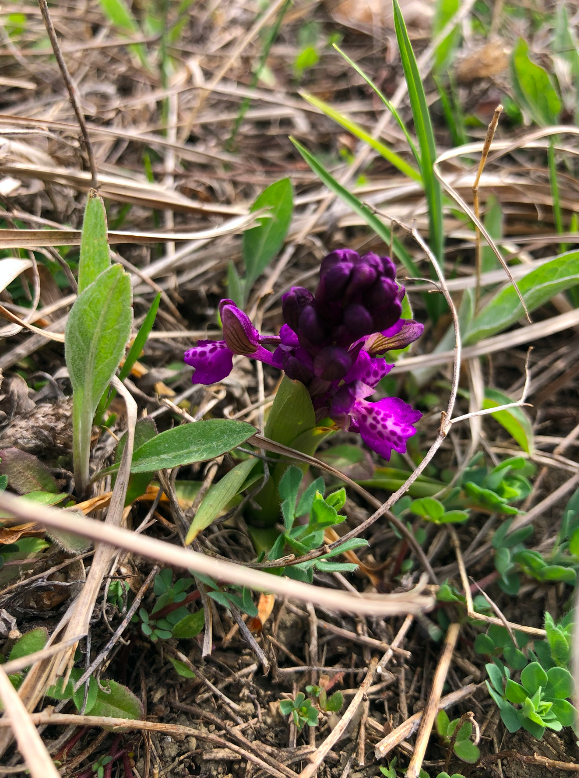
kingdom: Plantae
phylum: Tracheophyta
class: Liliopsida
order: Asparagales
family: Orchidaceae
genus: Anacamptis
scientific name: Anacamptis morio
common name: Green-winged orchid
